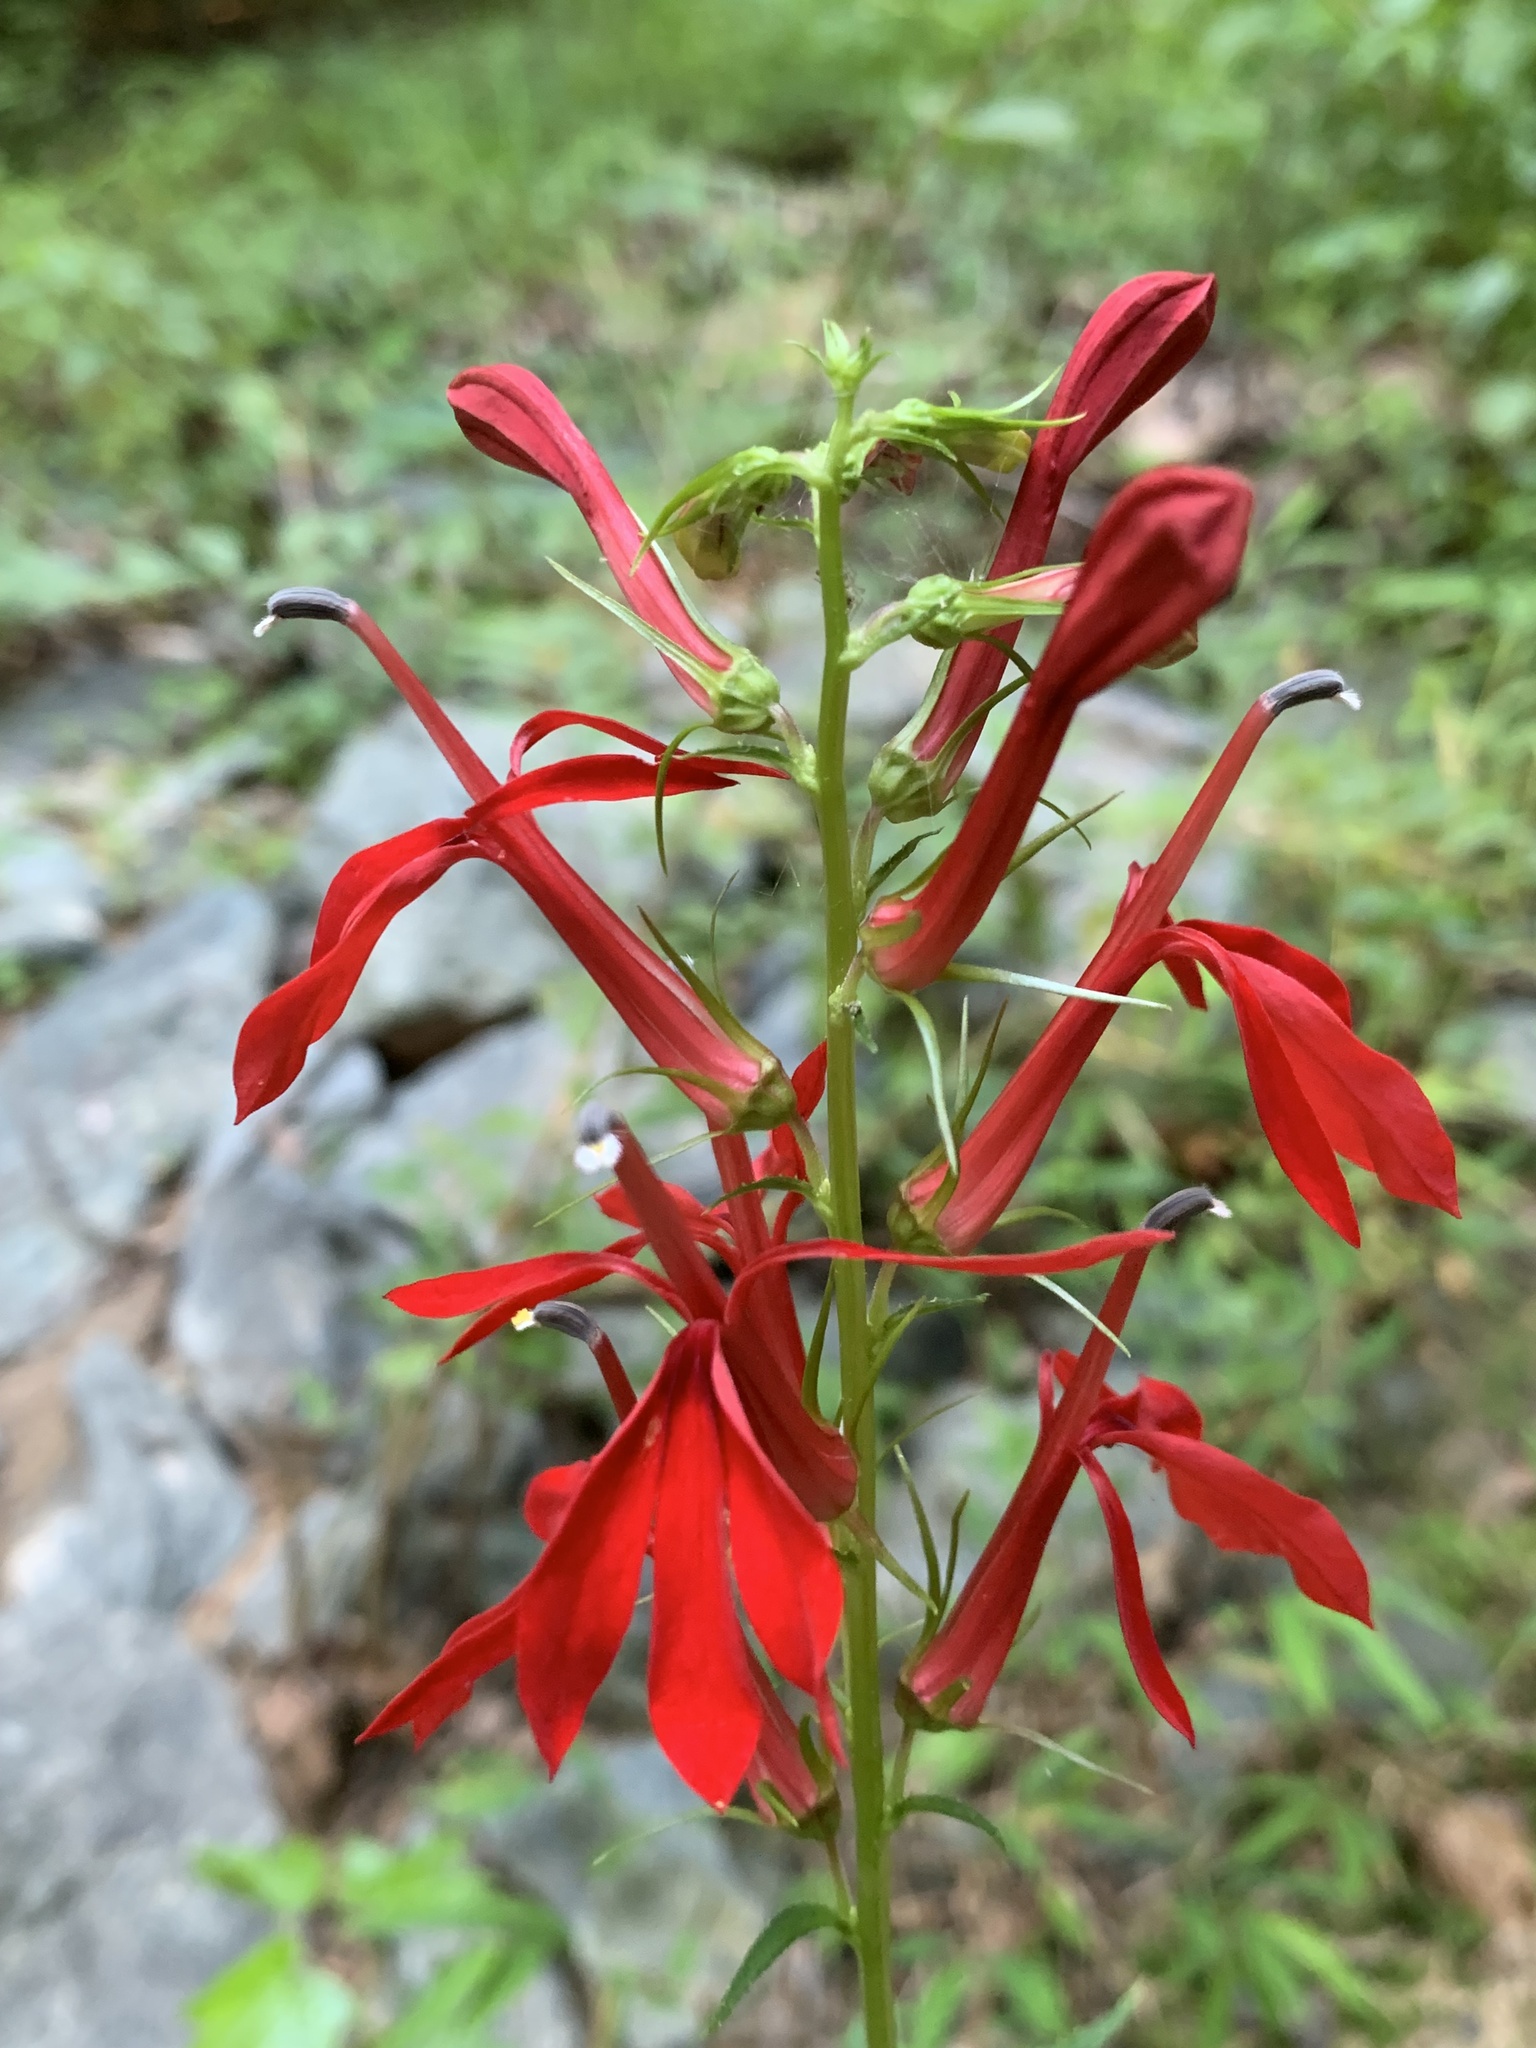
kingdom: Plantae
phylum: Tracheophyta
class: Magnoliopsida
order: Asterales
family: Campanulaceae
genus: Lobelia
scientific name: Lobelia cardinalis
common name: Cardinal flower
